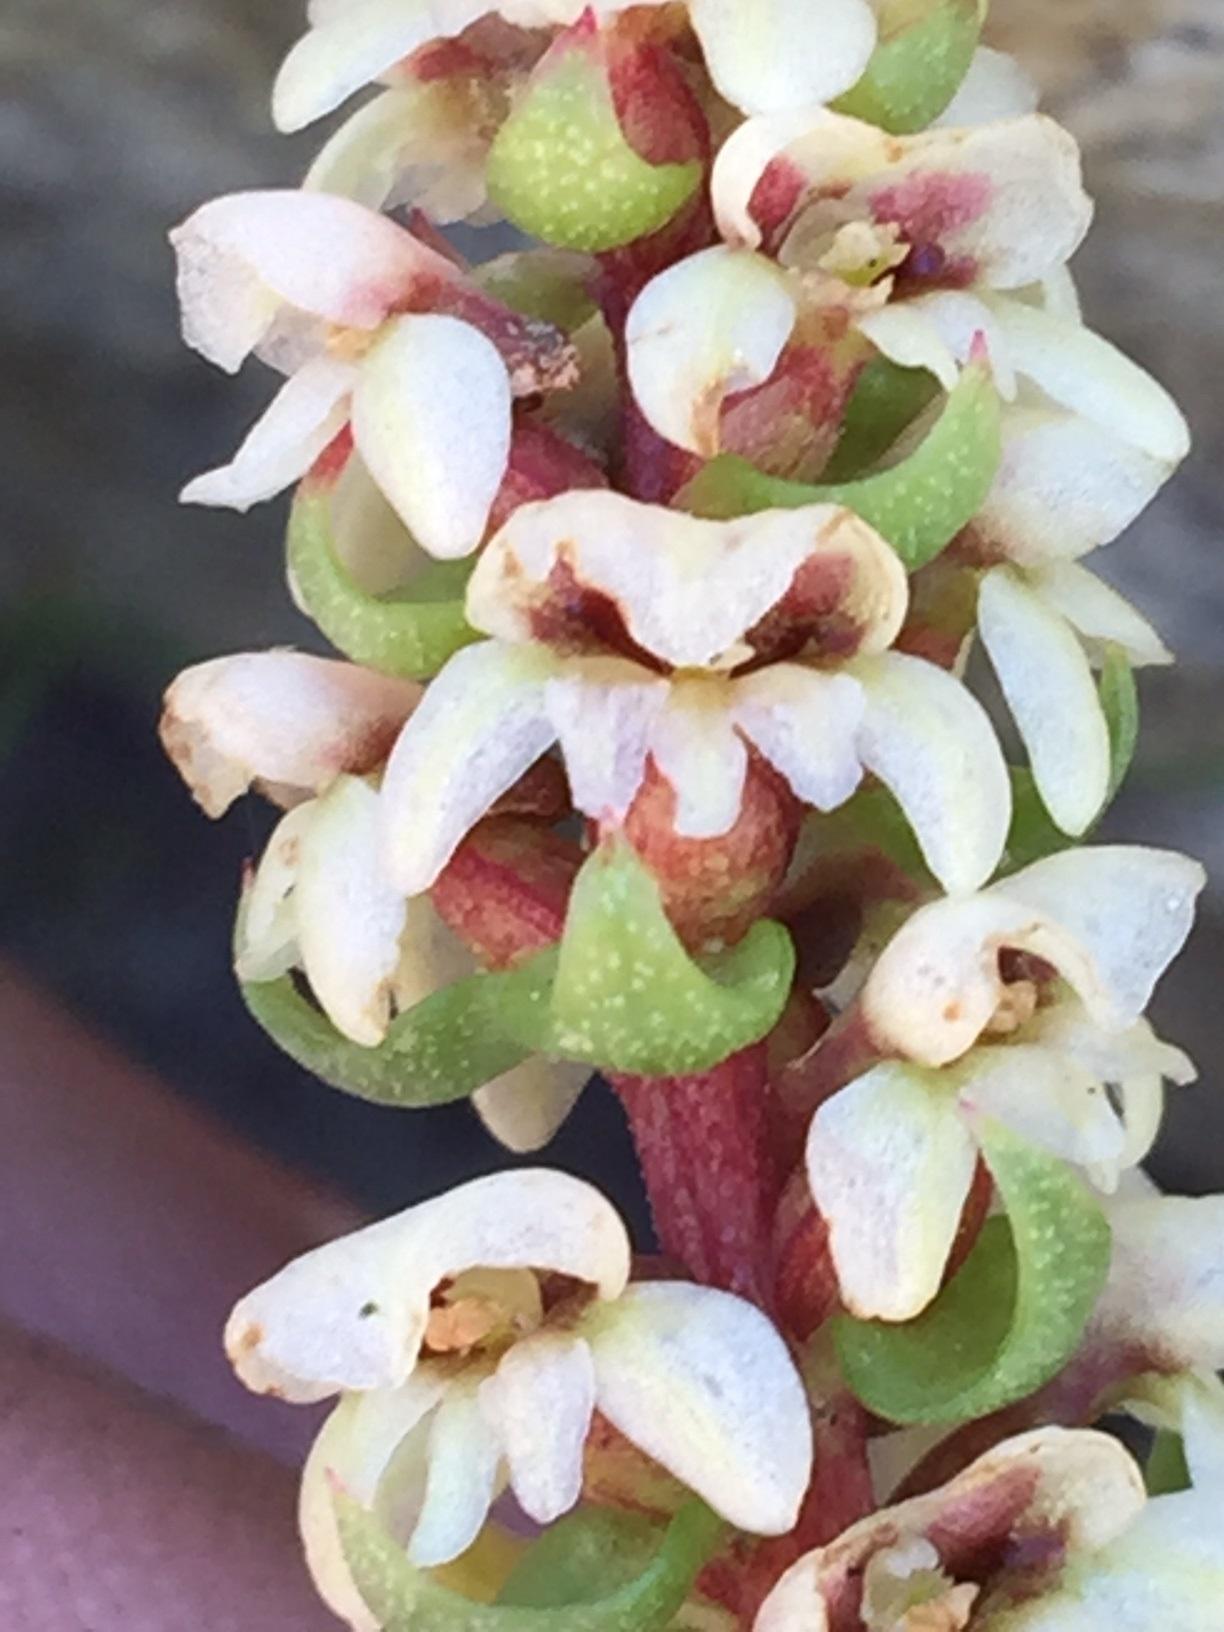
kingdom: Plantae
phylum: Tracheophyta
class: Liliopsida
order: Asparagales
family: Orchidaceae
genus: Satyrium
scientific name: Satyrium bicallosum
